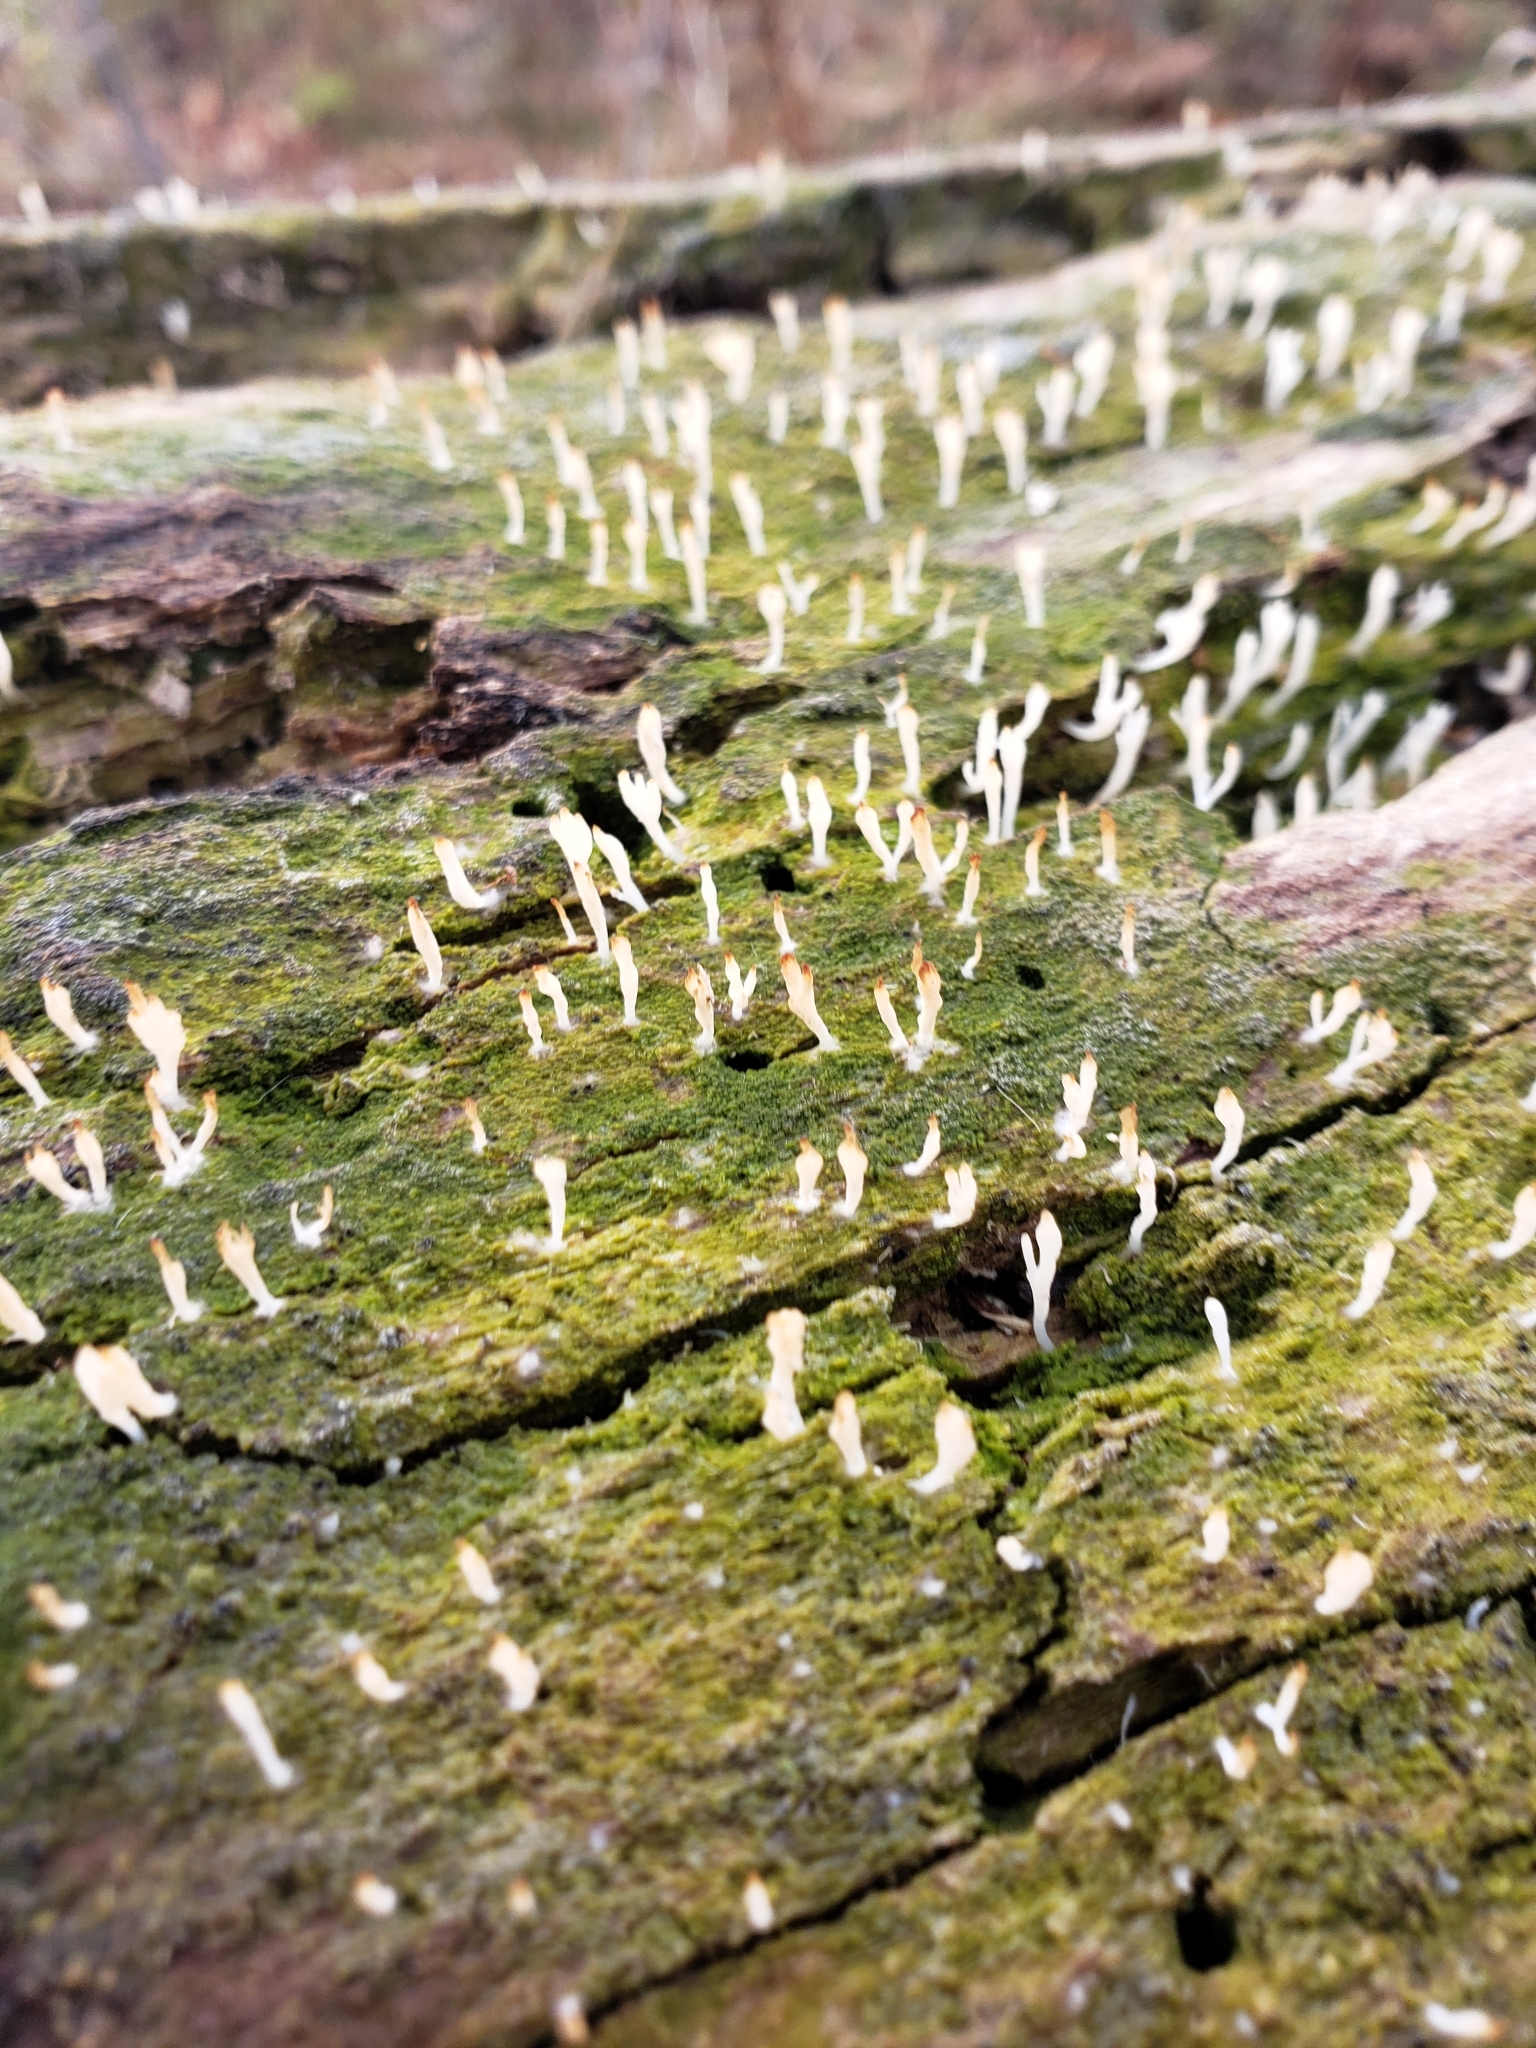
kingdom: Fungi
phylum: Basidiomycota
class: Agaricomycetes
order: Cantharellales
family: Hydnaceae
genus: Multiclavula
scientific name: Multiclavula mucida
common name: White green-algae coral
